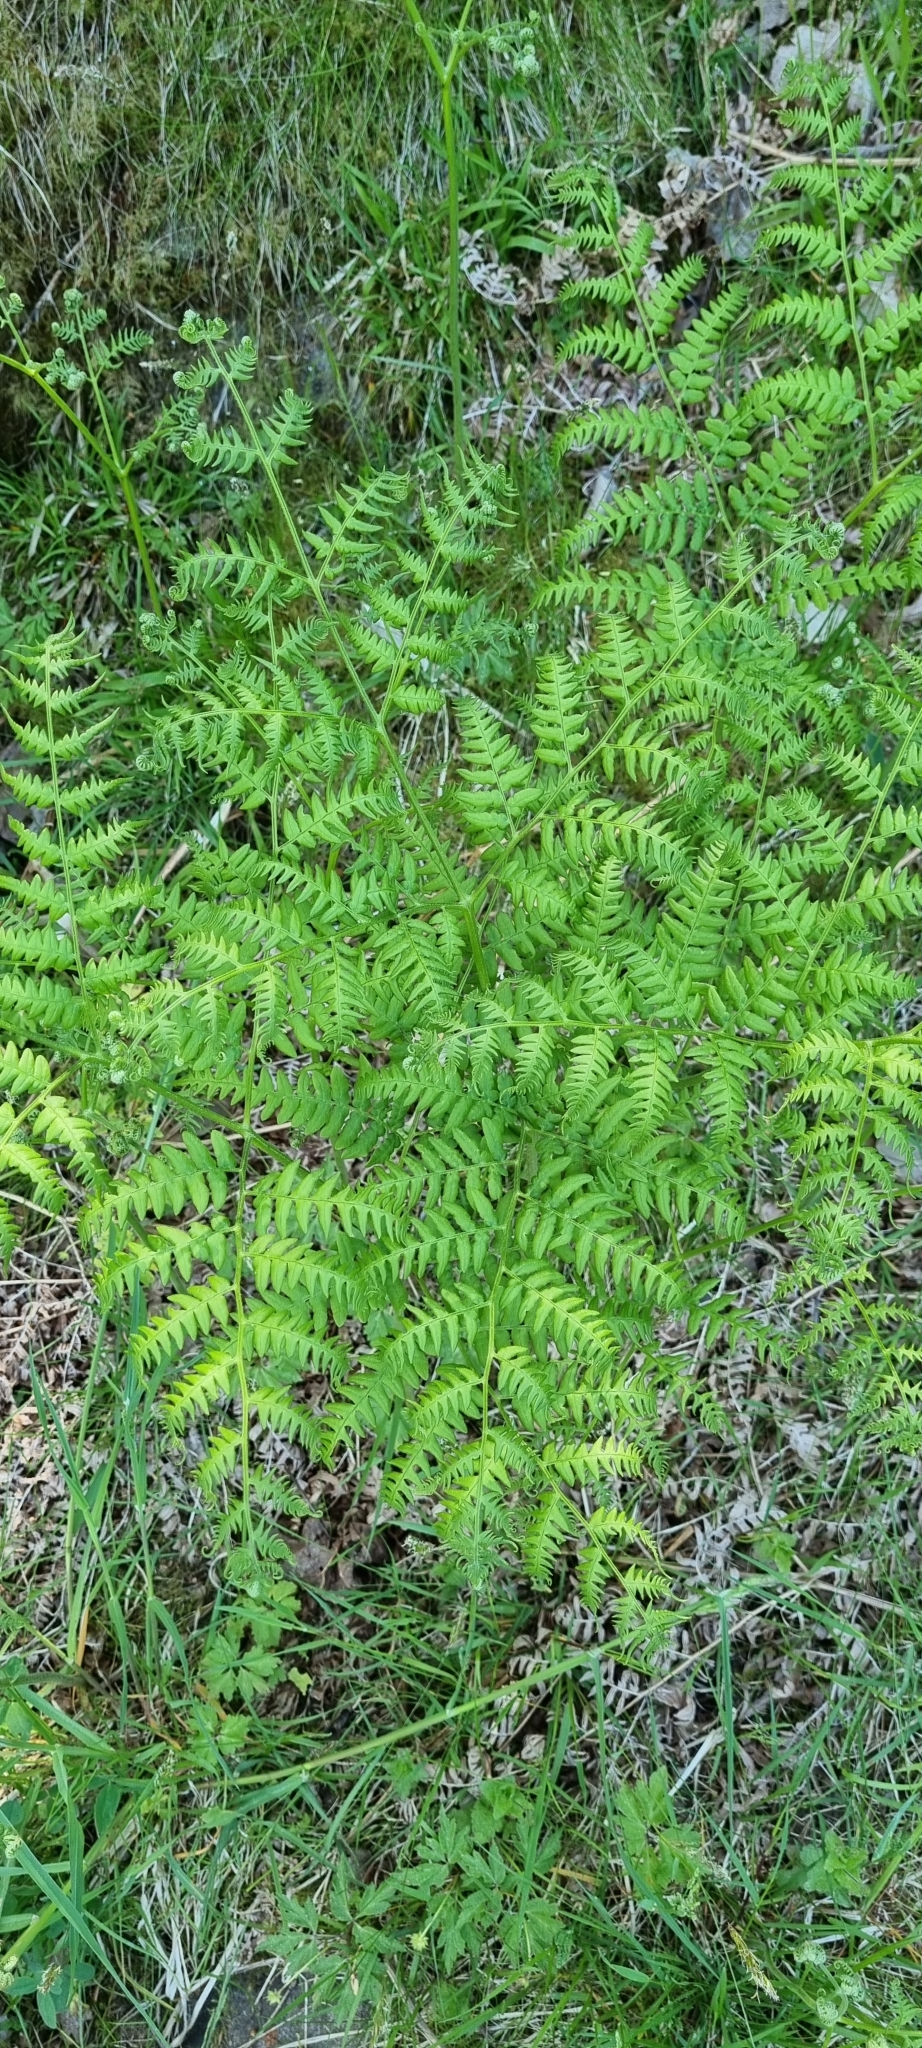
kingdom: Plantae
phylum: Tracheophyta
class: Polypodiopsida
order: Polypodiales
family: Dennstaedtiaceae
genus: Pteridium
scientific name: Pteridium aquilinum
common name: Bracken
